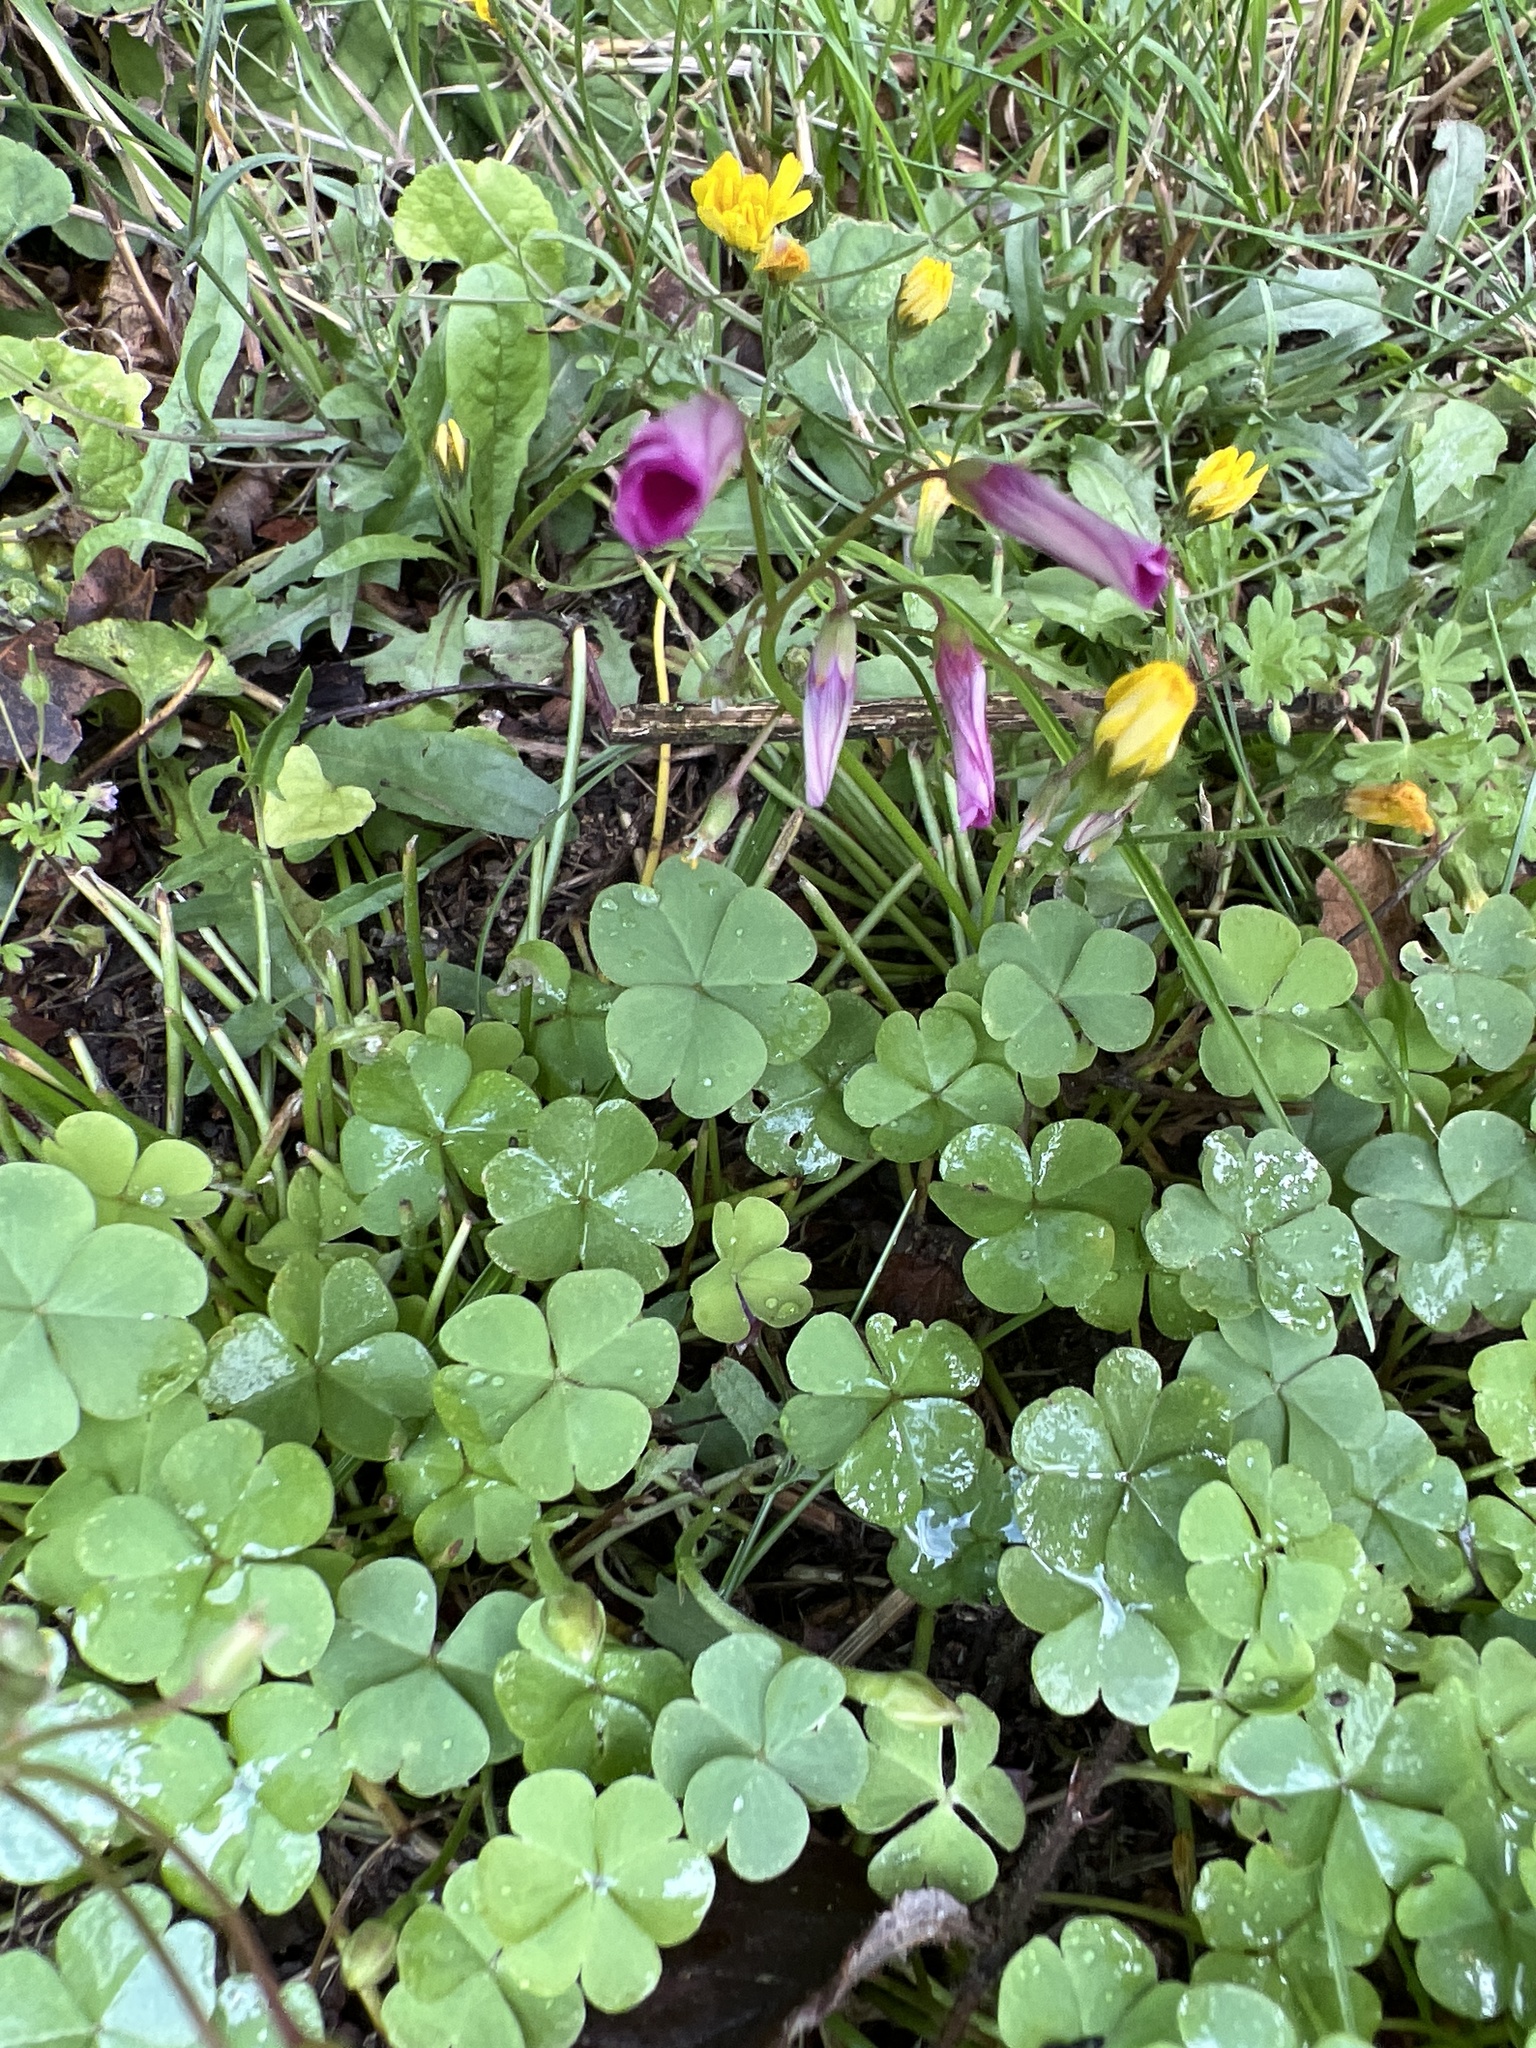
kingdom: Plantae
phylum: Tracheophyta
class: Magnoliopsida
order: Oxalidales
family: Oxalidaceae
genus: Oxalis
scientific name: Oxalis articulata
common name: Pink-sorrel
